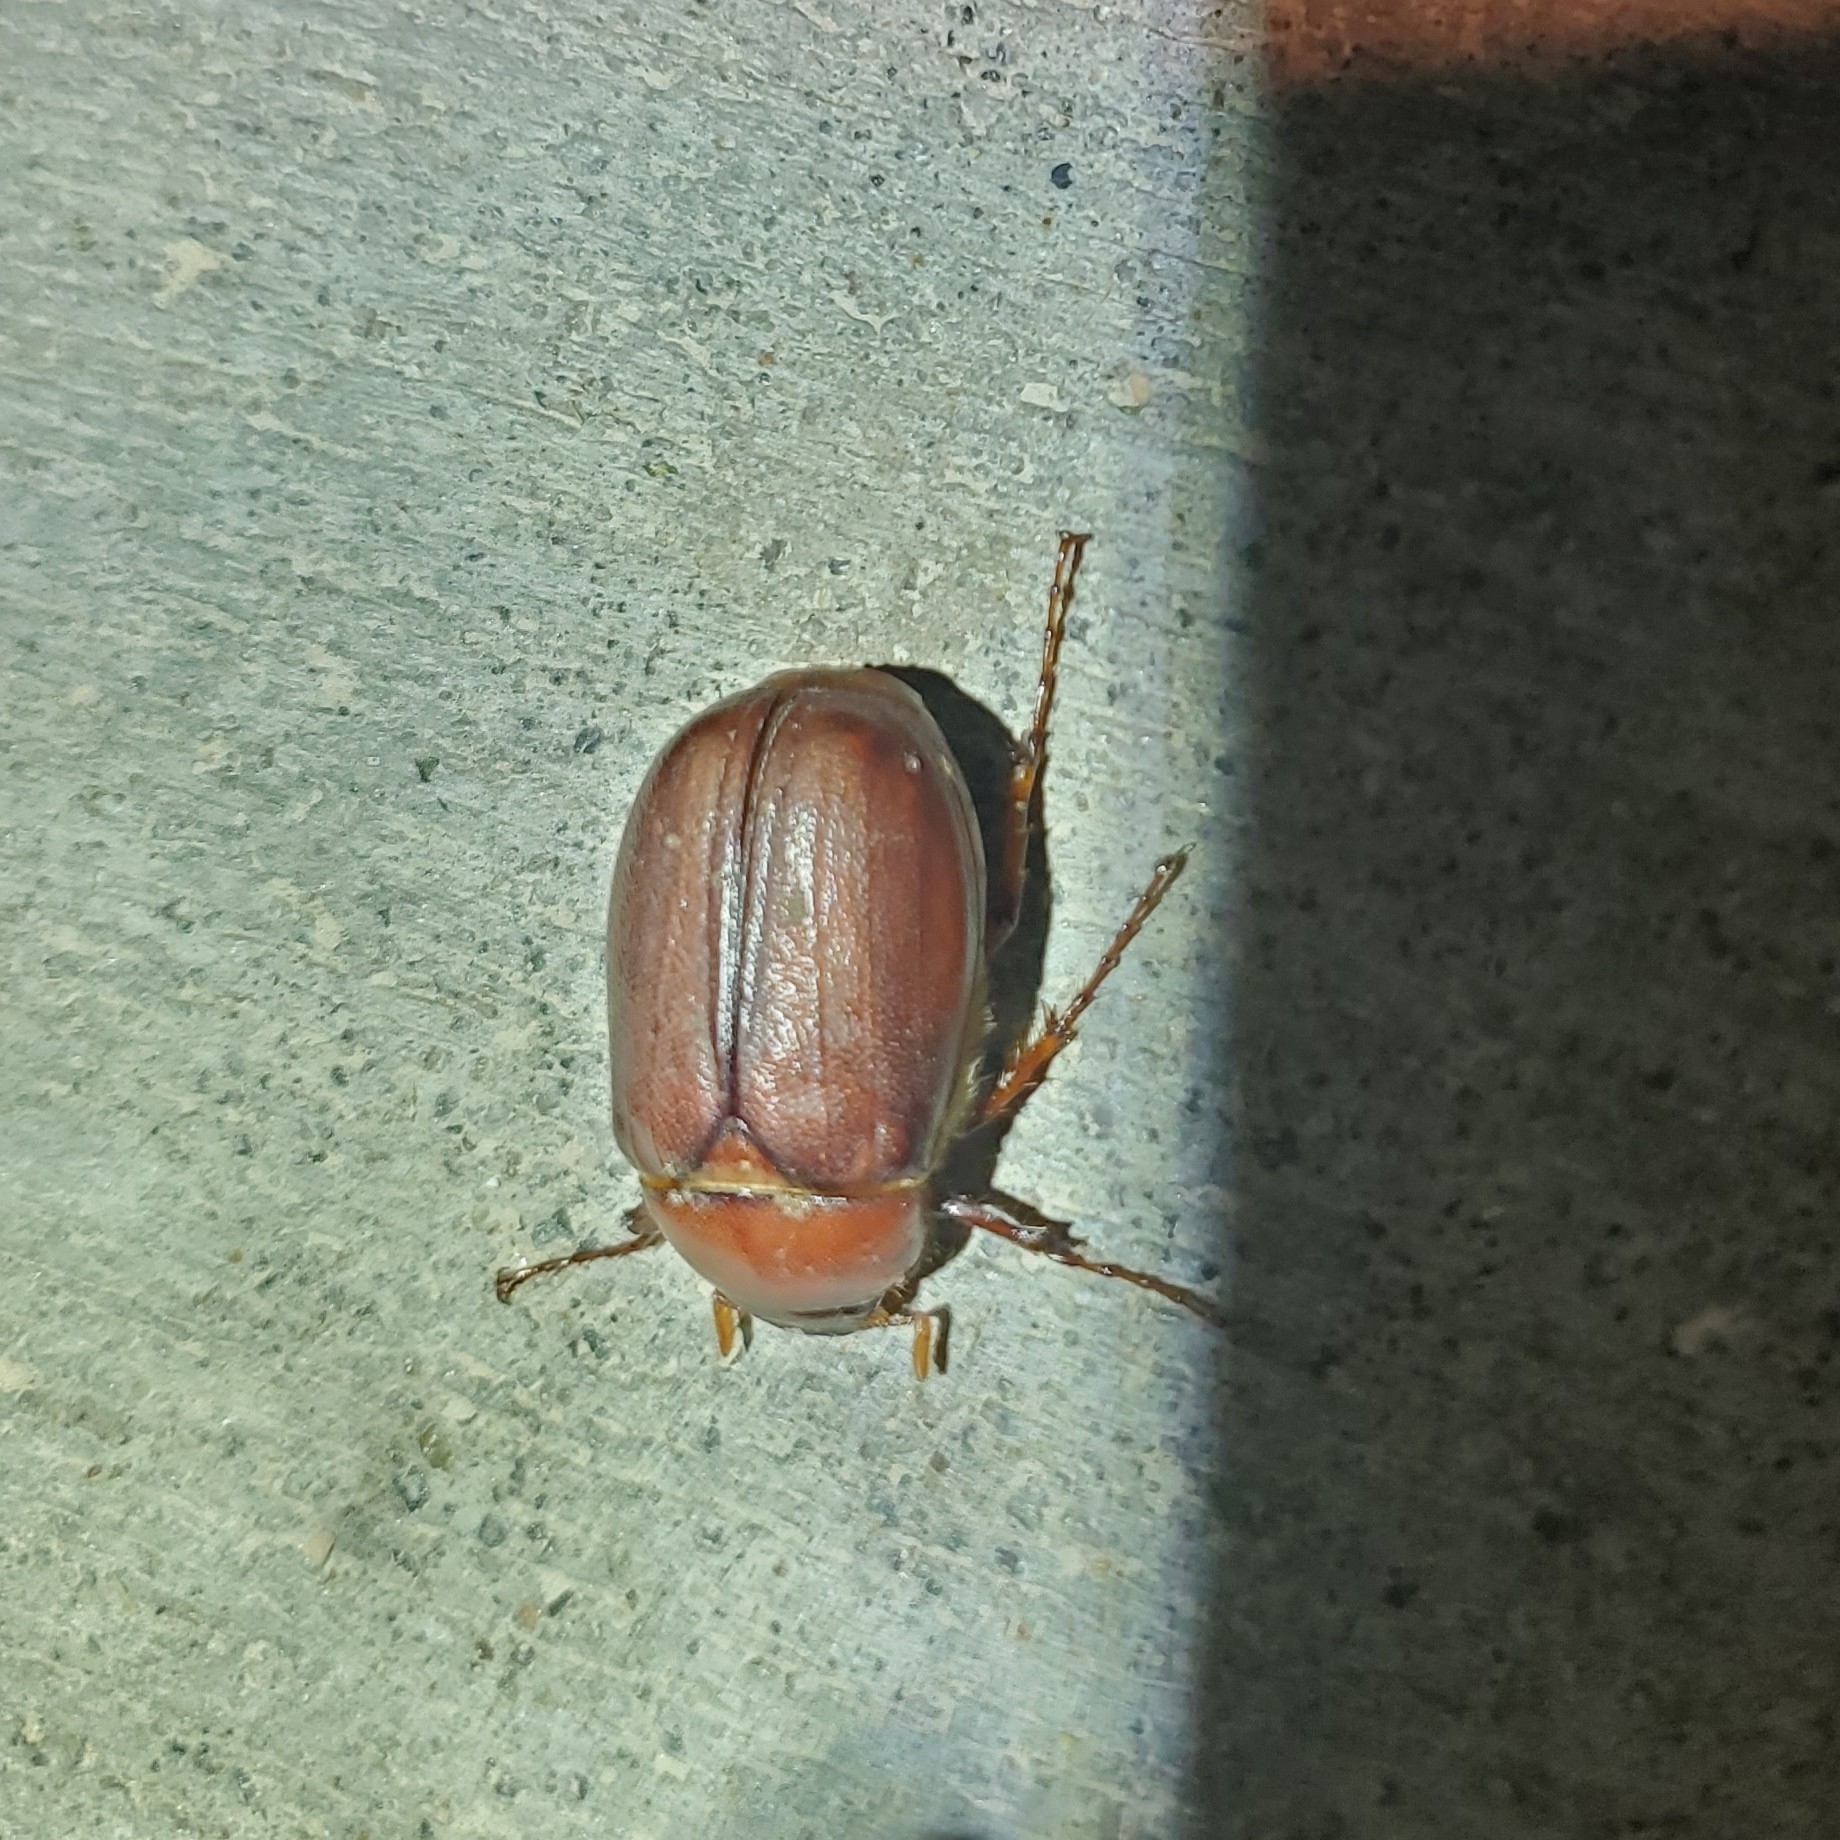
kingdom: Animalia
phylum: Arthropoda
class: Insecta
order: Coleoptera
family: Scarabaeidae
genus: Phyllophaga
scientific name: Phyllophaga crassissima
